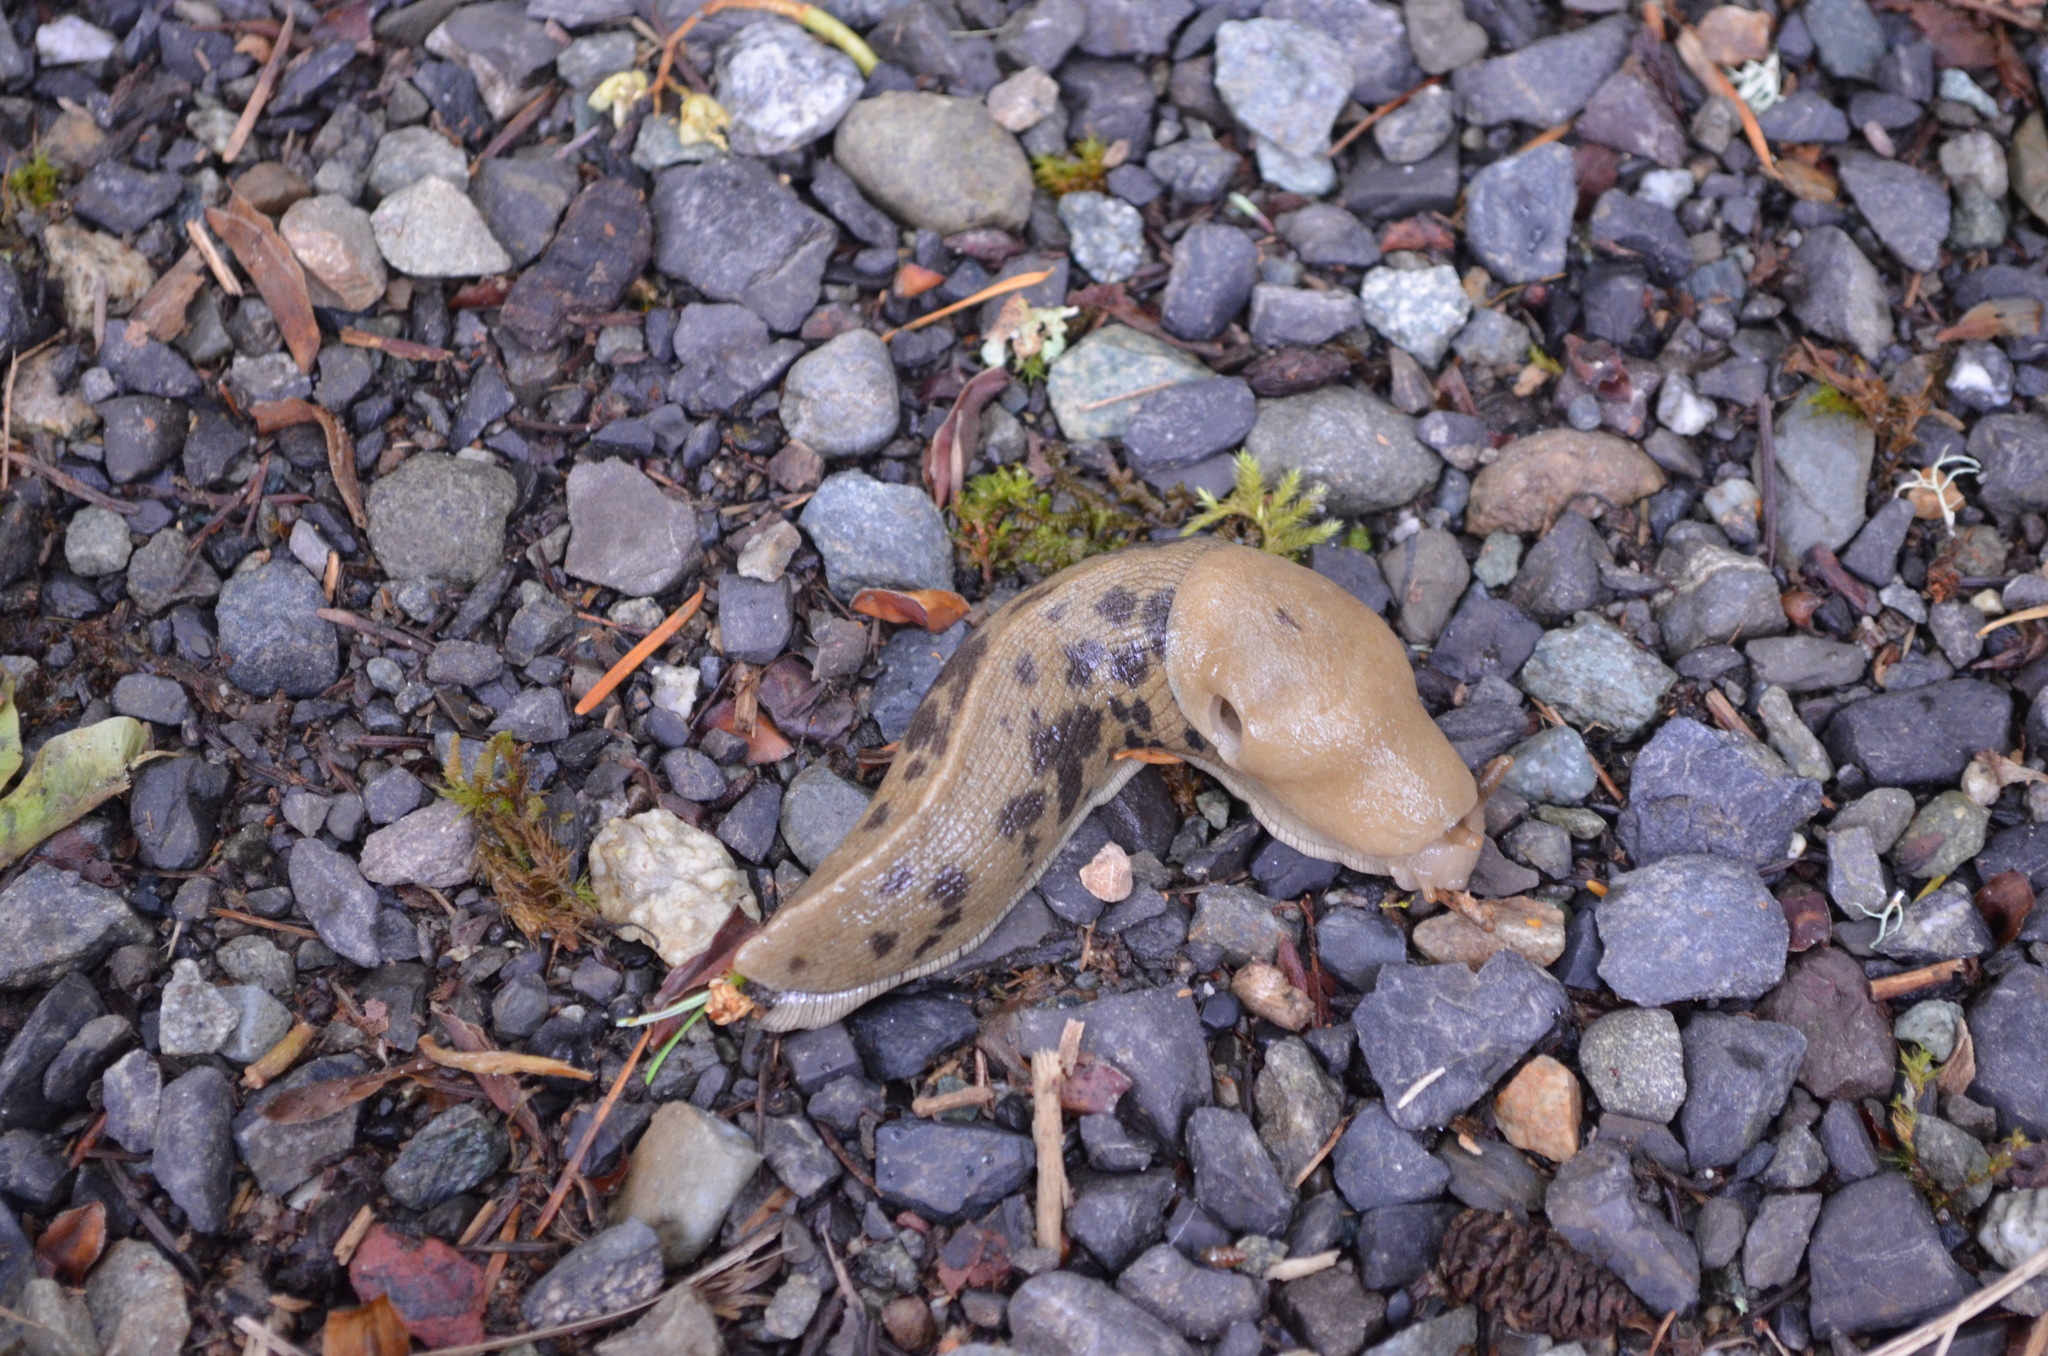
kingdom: Animalia
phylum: Mollusca
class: Gastropoda
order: Stylommatophora
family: Ariolimacidae
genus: Ariolimax
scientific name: Ariolimax columbianus
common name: Pacific banana slug
